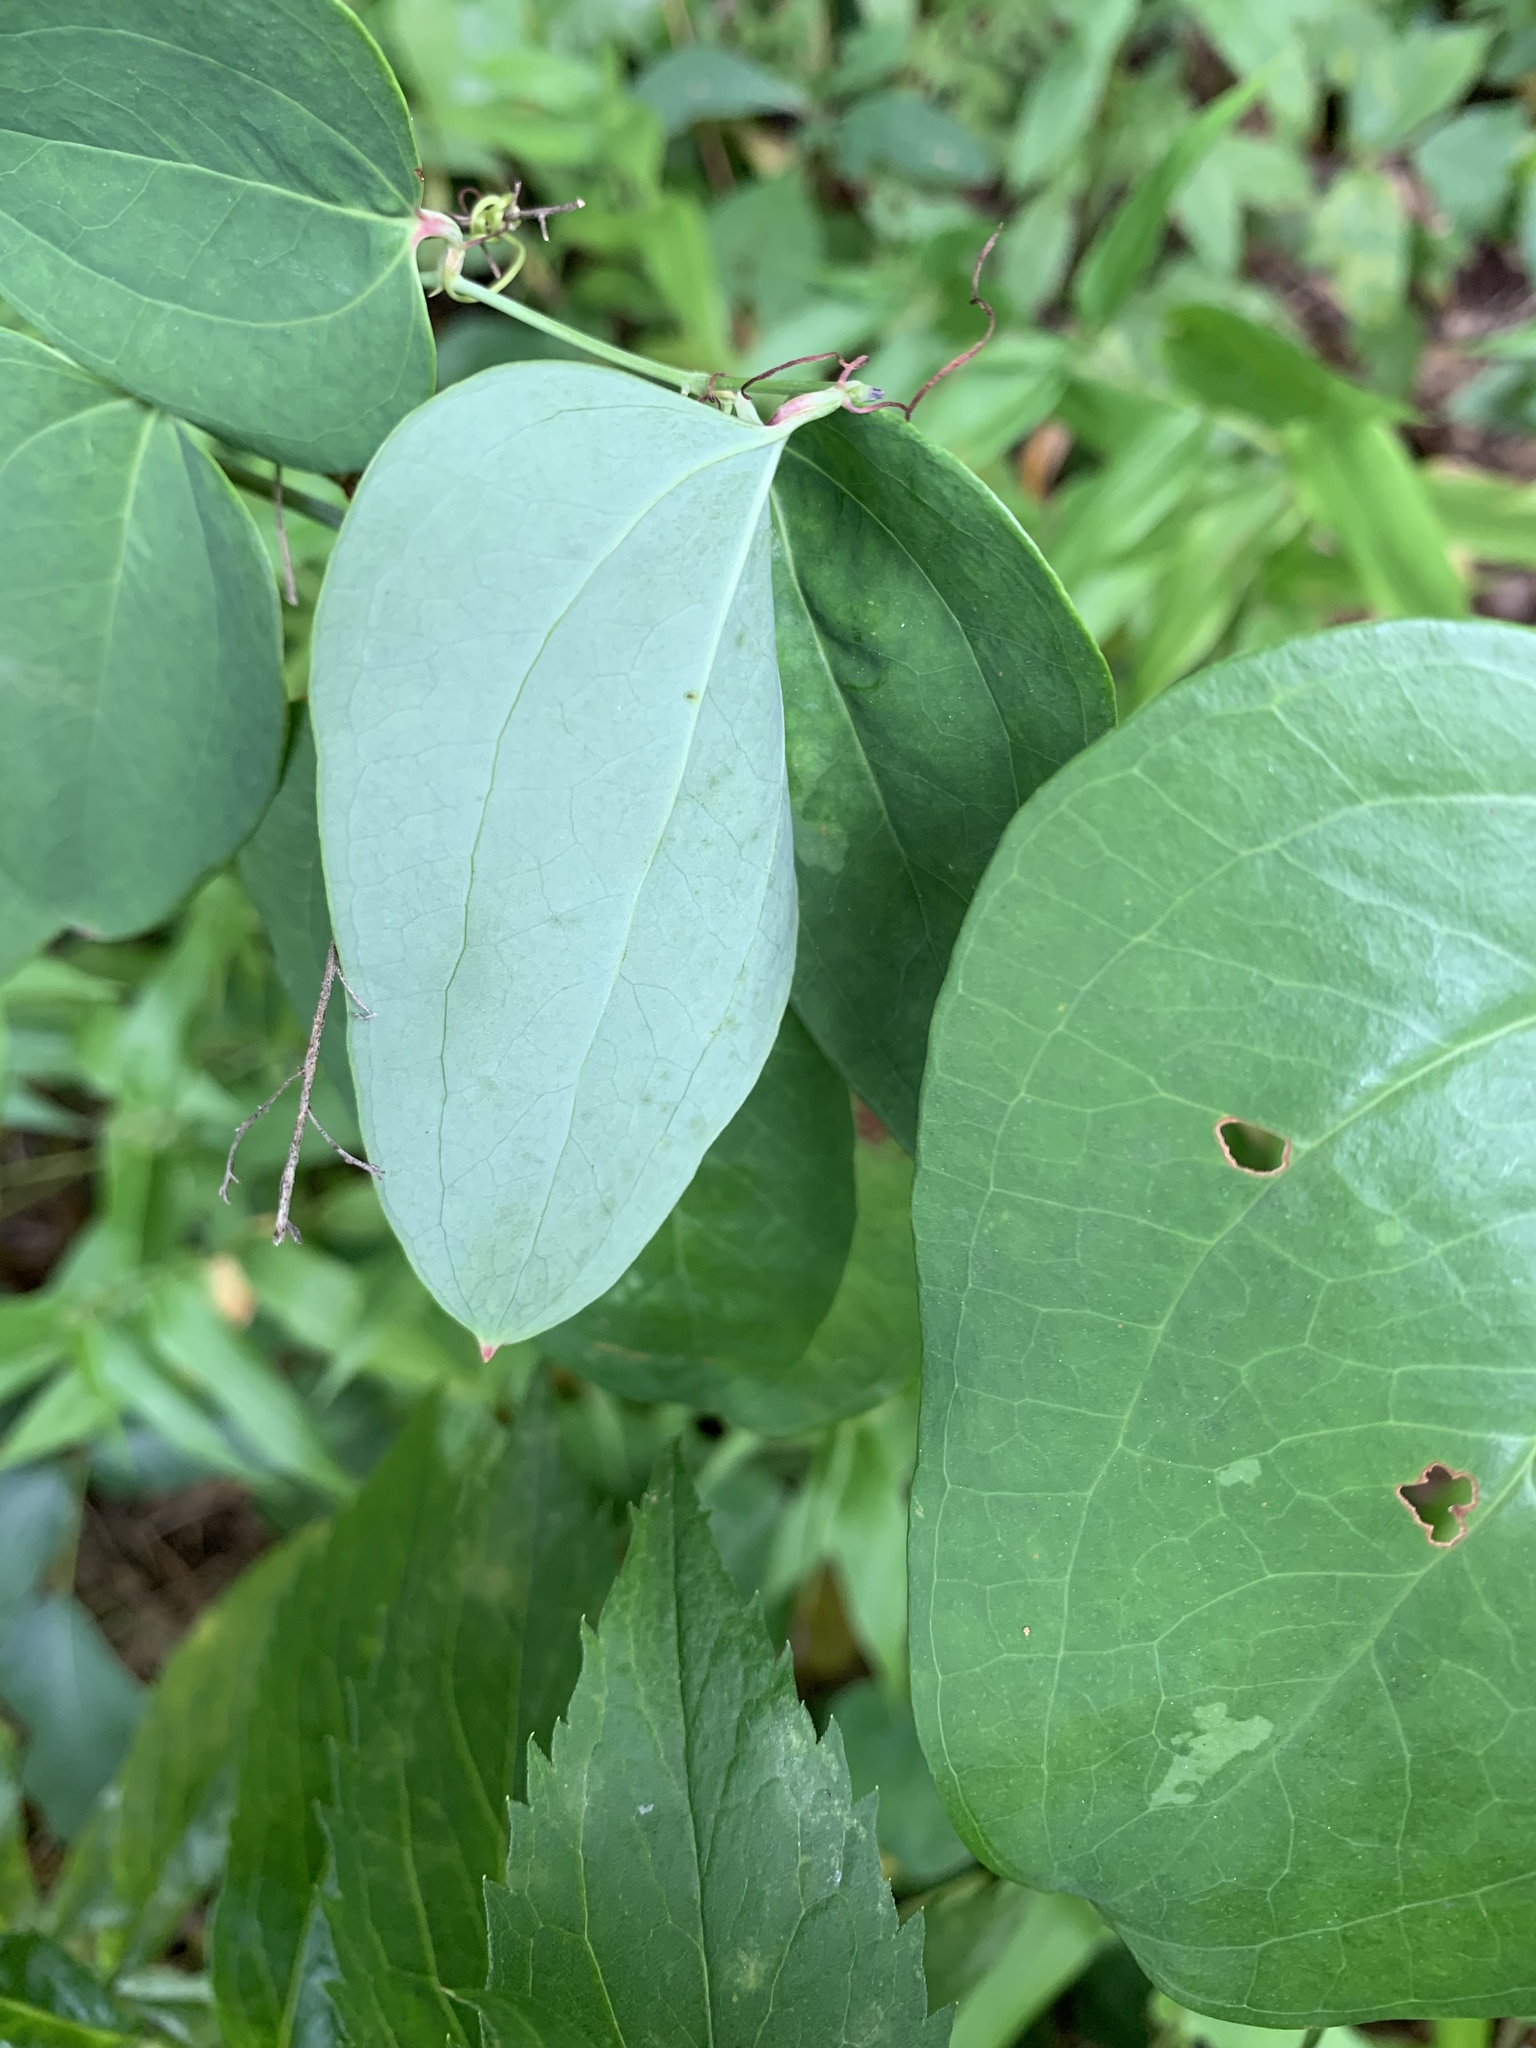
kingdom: Plantae
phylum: Tracheophyta
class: Liliopsida
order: Liliales
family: Smilacaceae
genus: Smilax
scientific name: Smilax glauca
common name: Cat greenbrier
